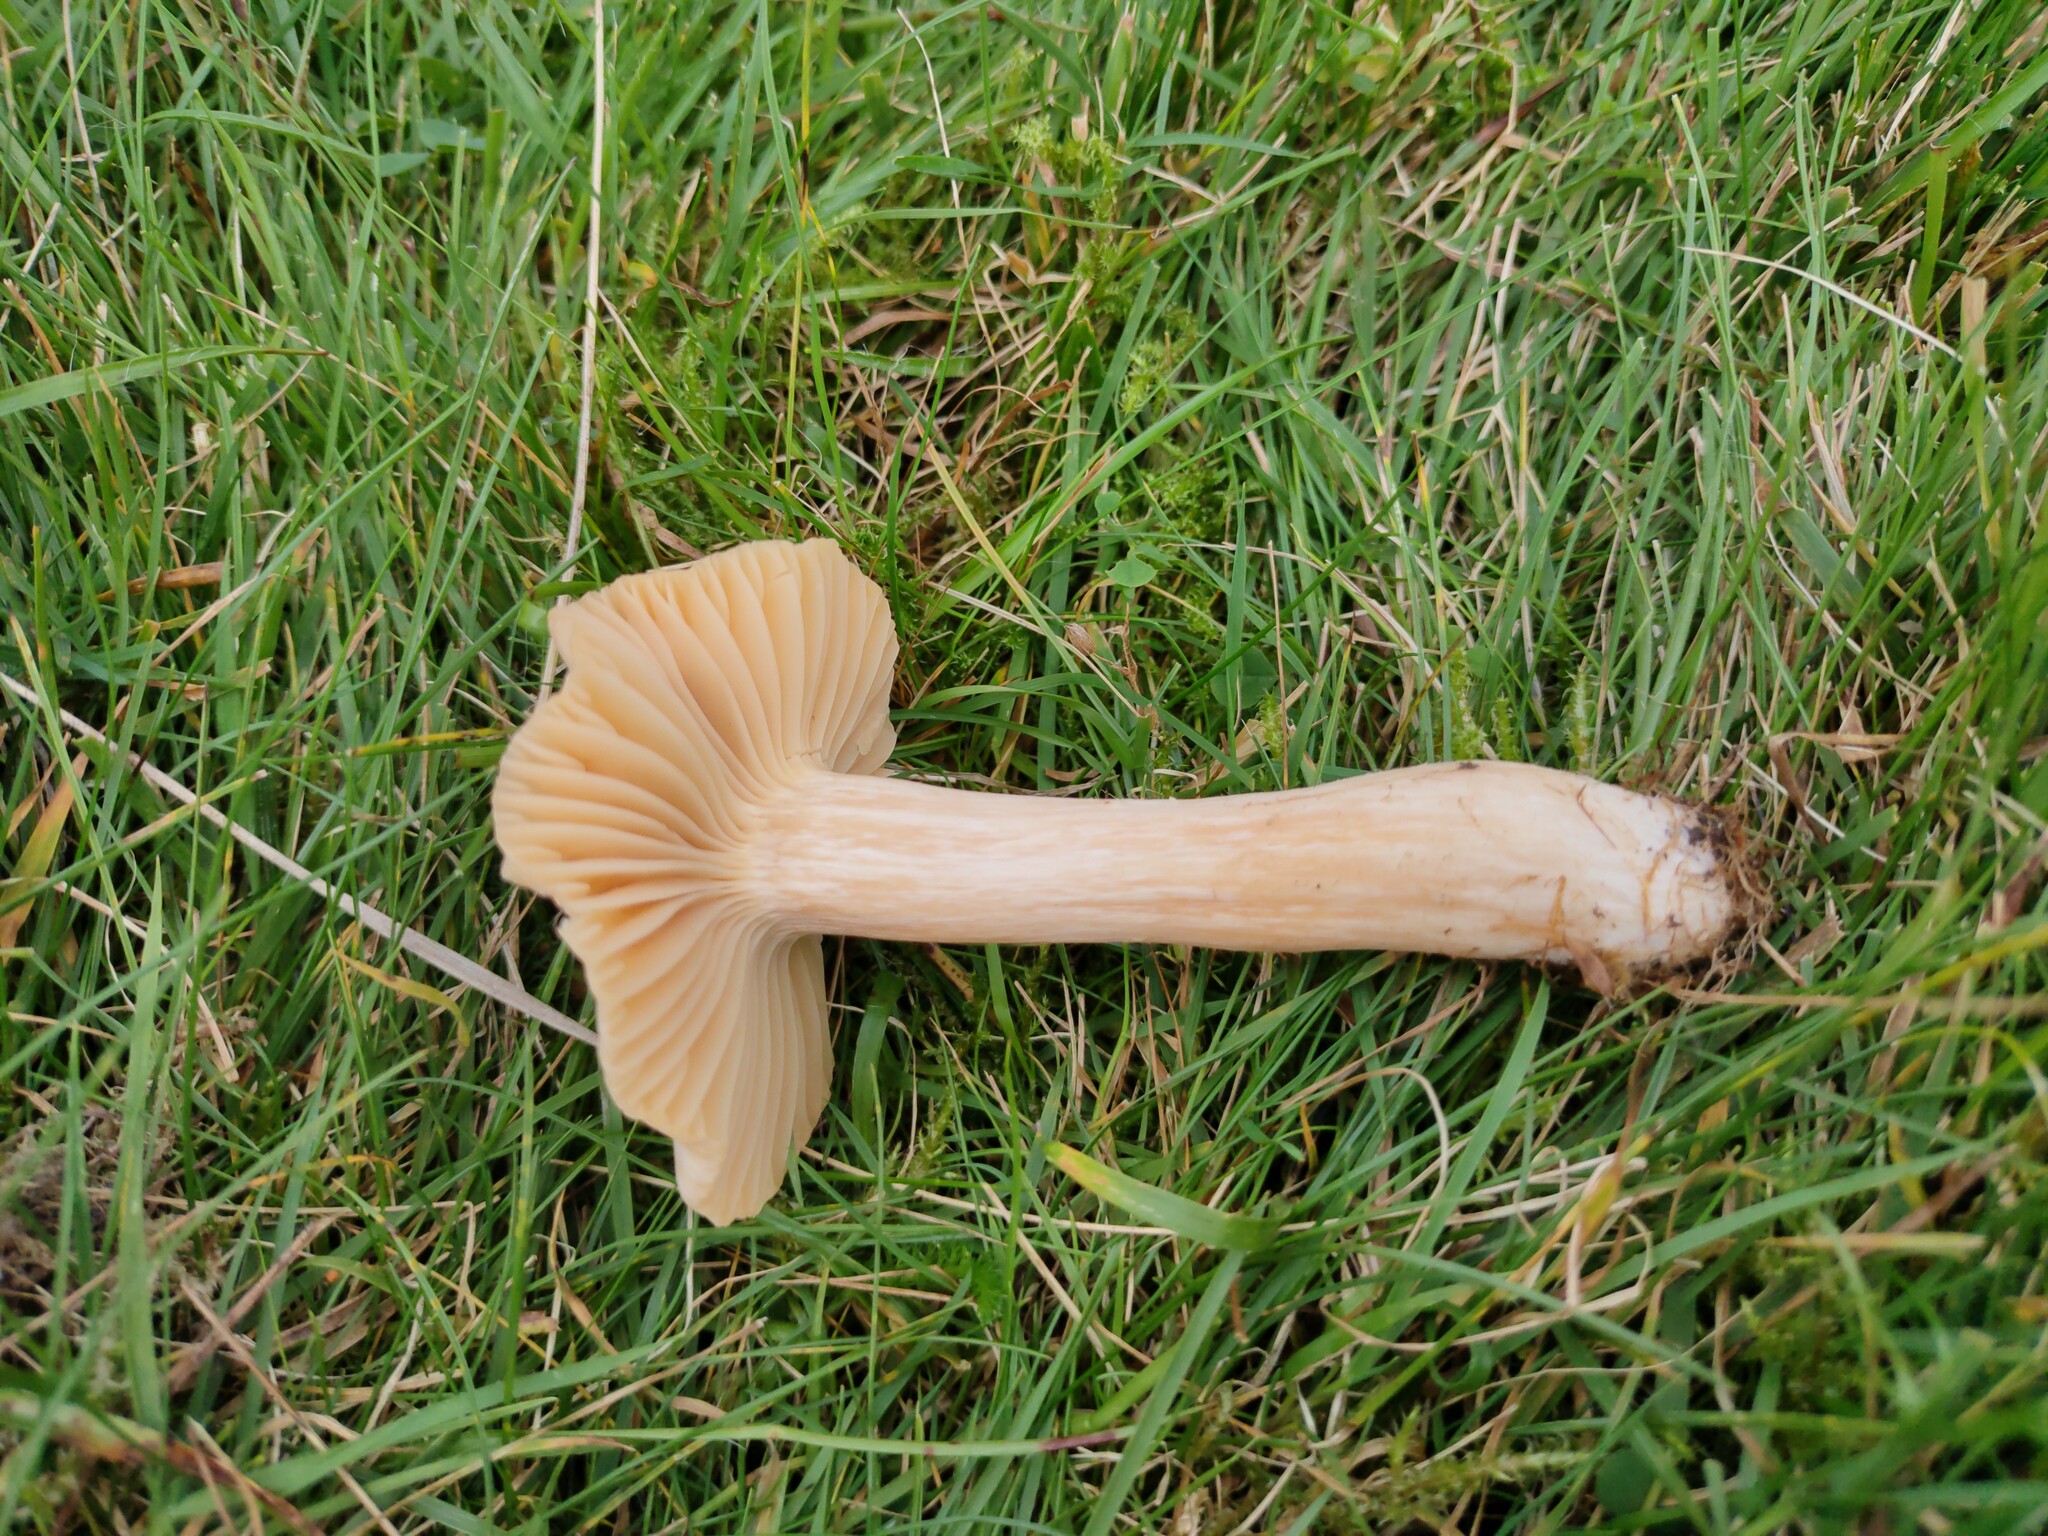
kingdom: Fungi
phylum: Basidiomycota
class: Agaricomycetes
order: Agaricales
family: Hygrophoraceae
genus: Cuphophyllus
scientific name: Cuphophyllus pratensis
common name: Meadow waxcap
